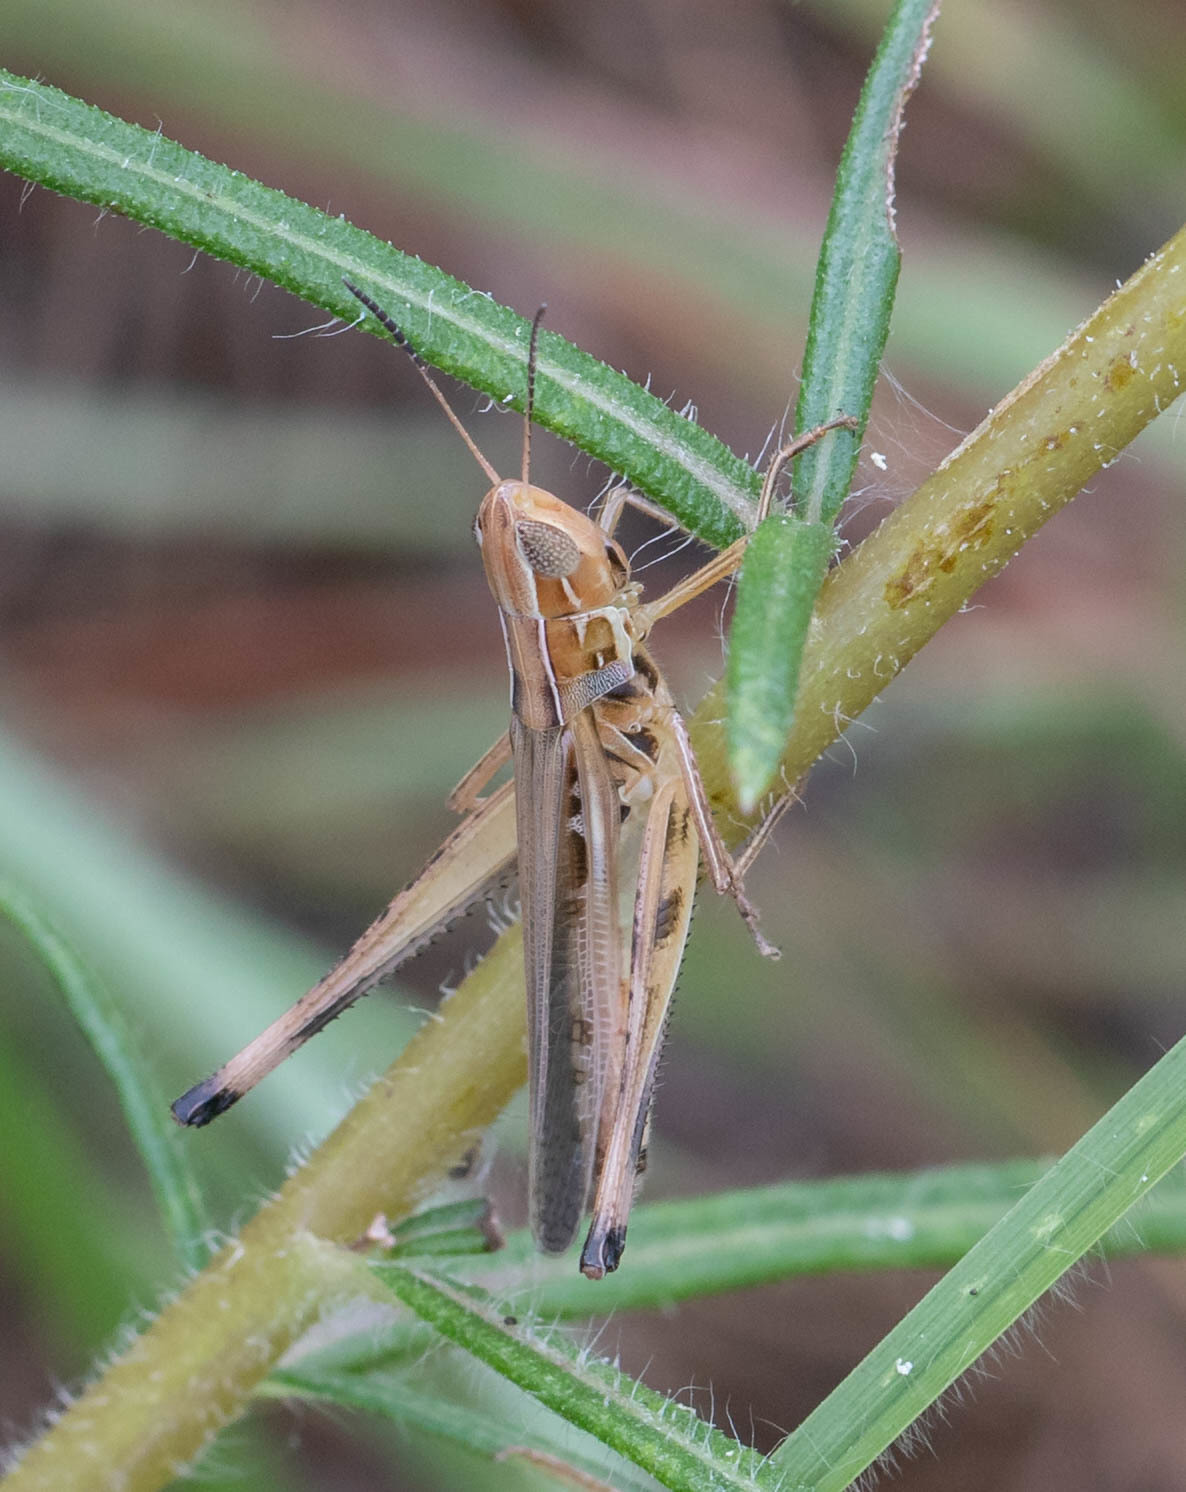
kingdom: Animalia
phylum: Arthropoda
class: Insecta
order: Orthoptera
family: Acrididae
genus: Syrbula
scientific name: Syrbula admirabilis
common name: Handsome grasshopper
